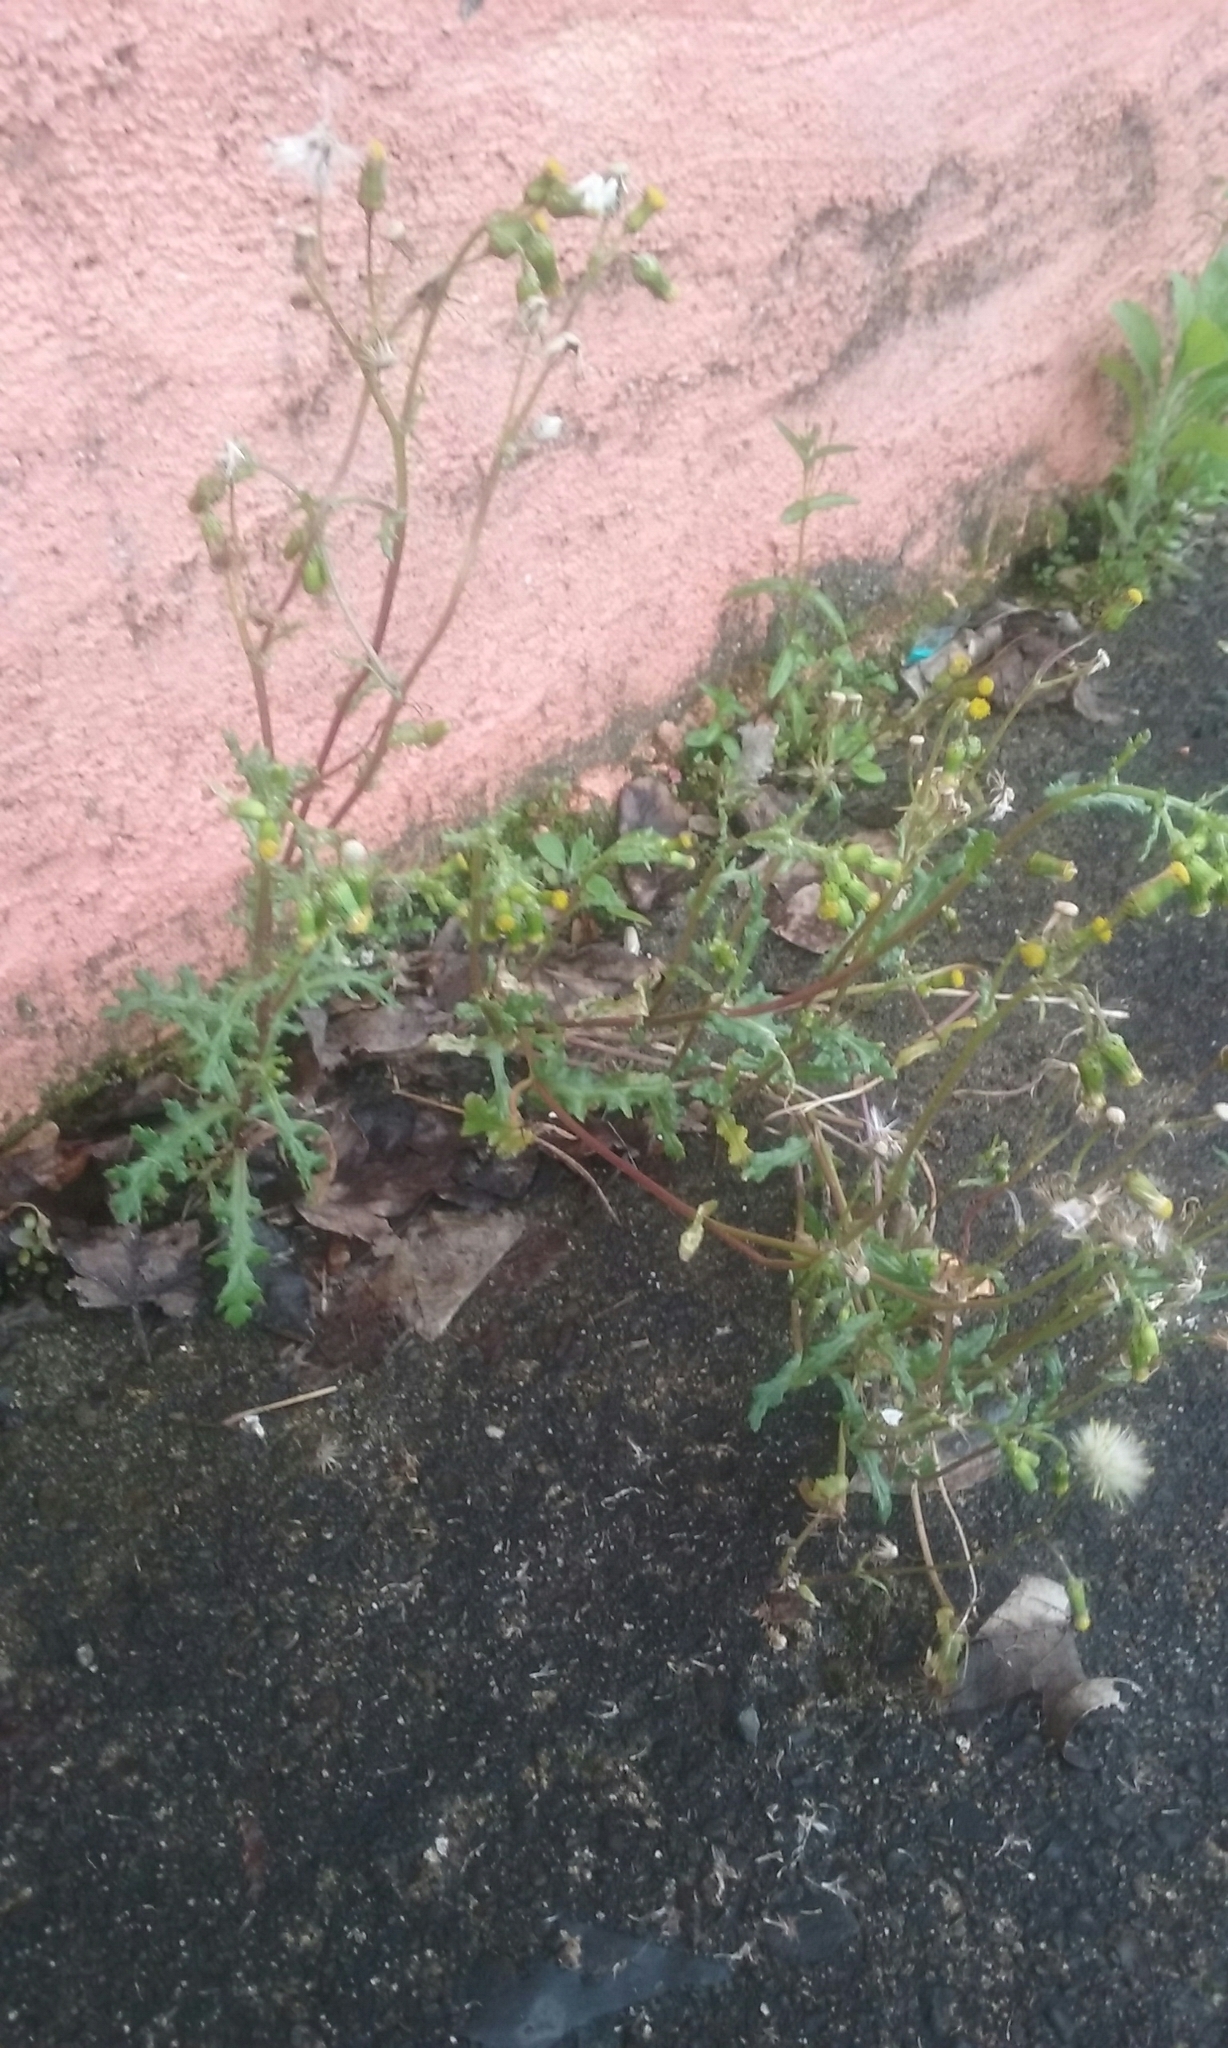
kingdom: Plantae
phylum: Tracheophyta
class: Magnoliopsida
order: Asterales
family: Asteraceae
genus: Senecio
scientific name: Senecio vulgaris
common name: Old-man-in-the-spring
